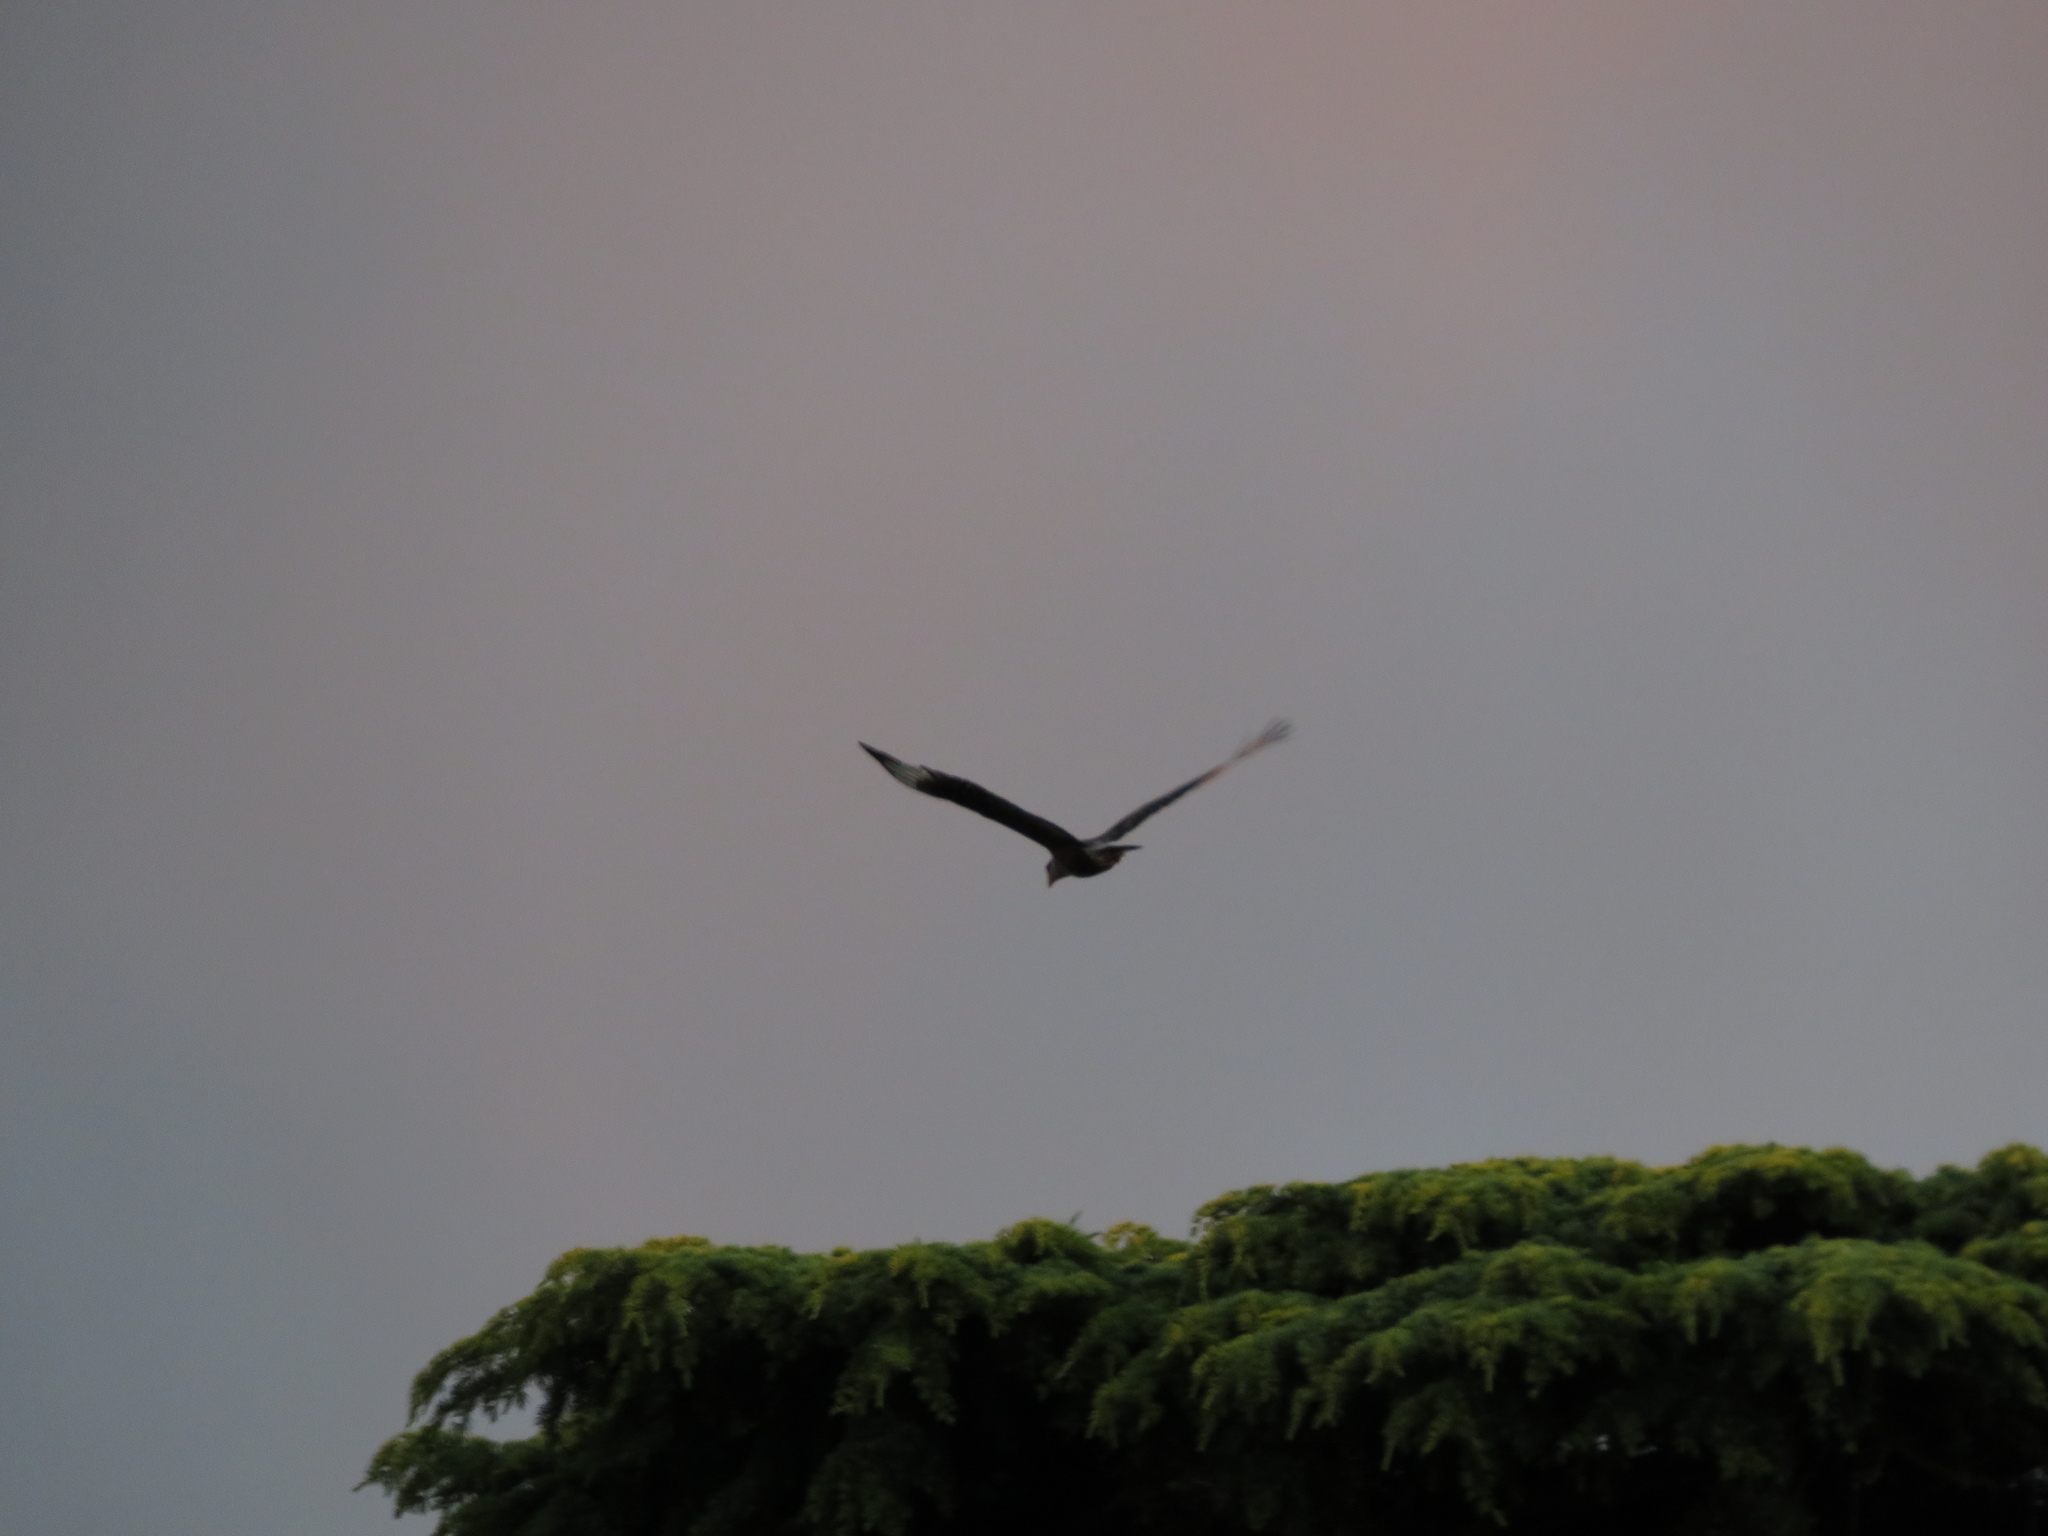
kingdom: Animalia
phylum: Chordata
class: Aves
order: Falconiformes
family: Falconidae
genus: Caracara
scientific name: Caracara plancus
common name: Southern caracara
